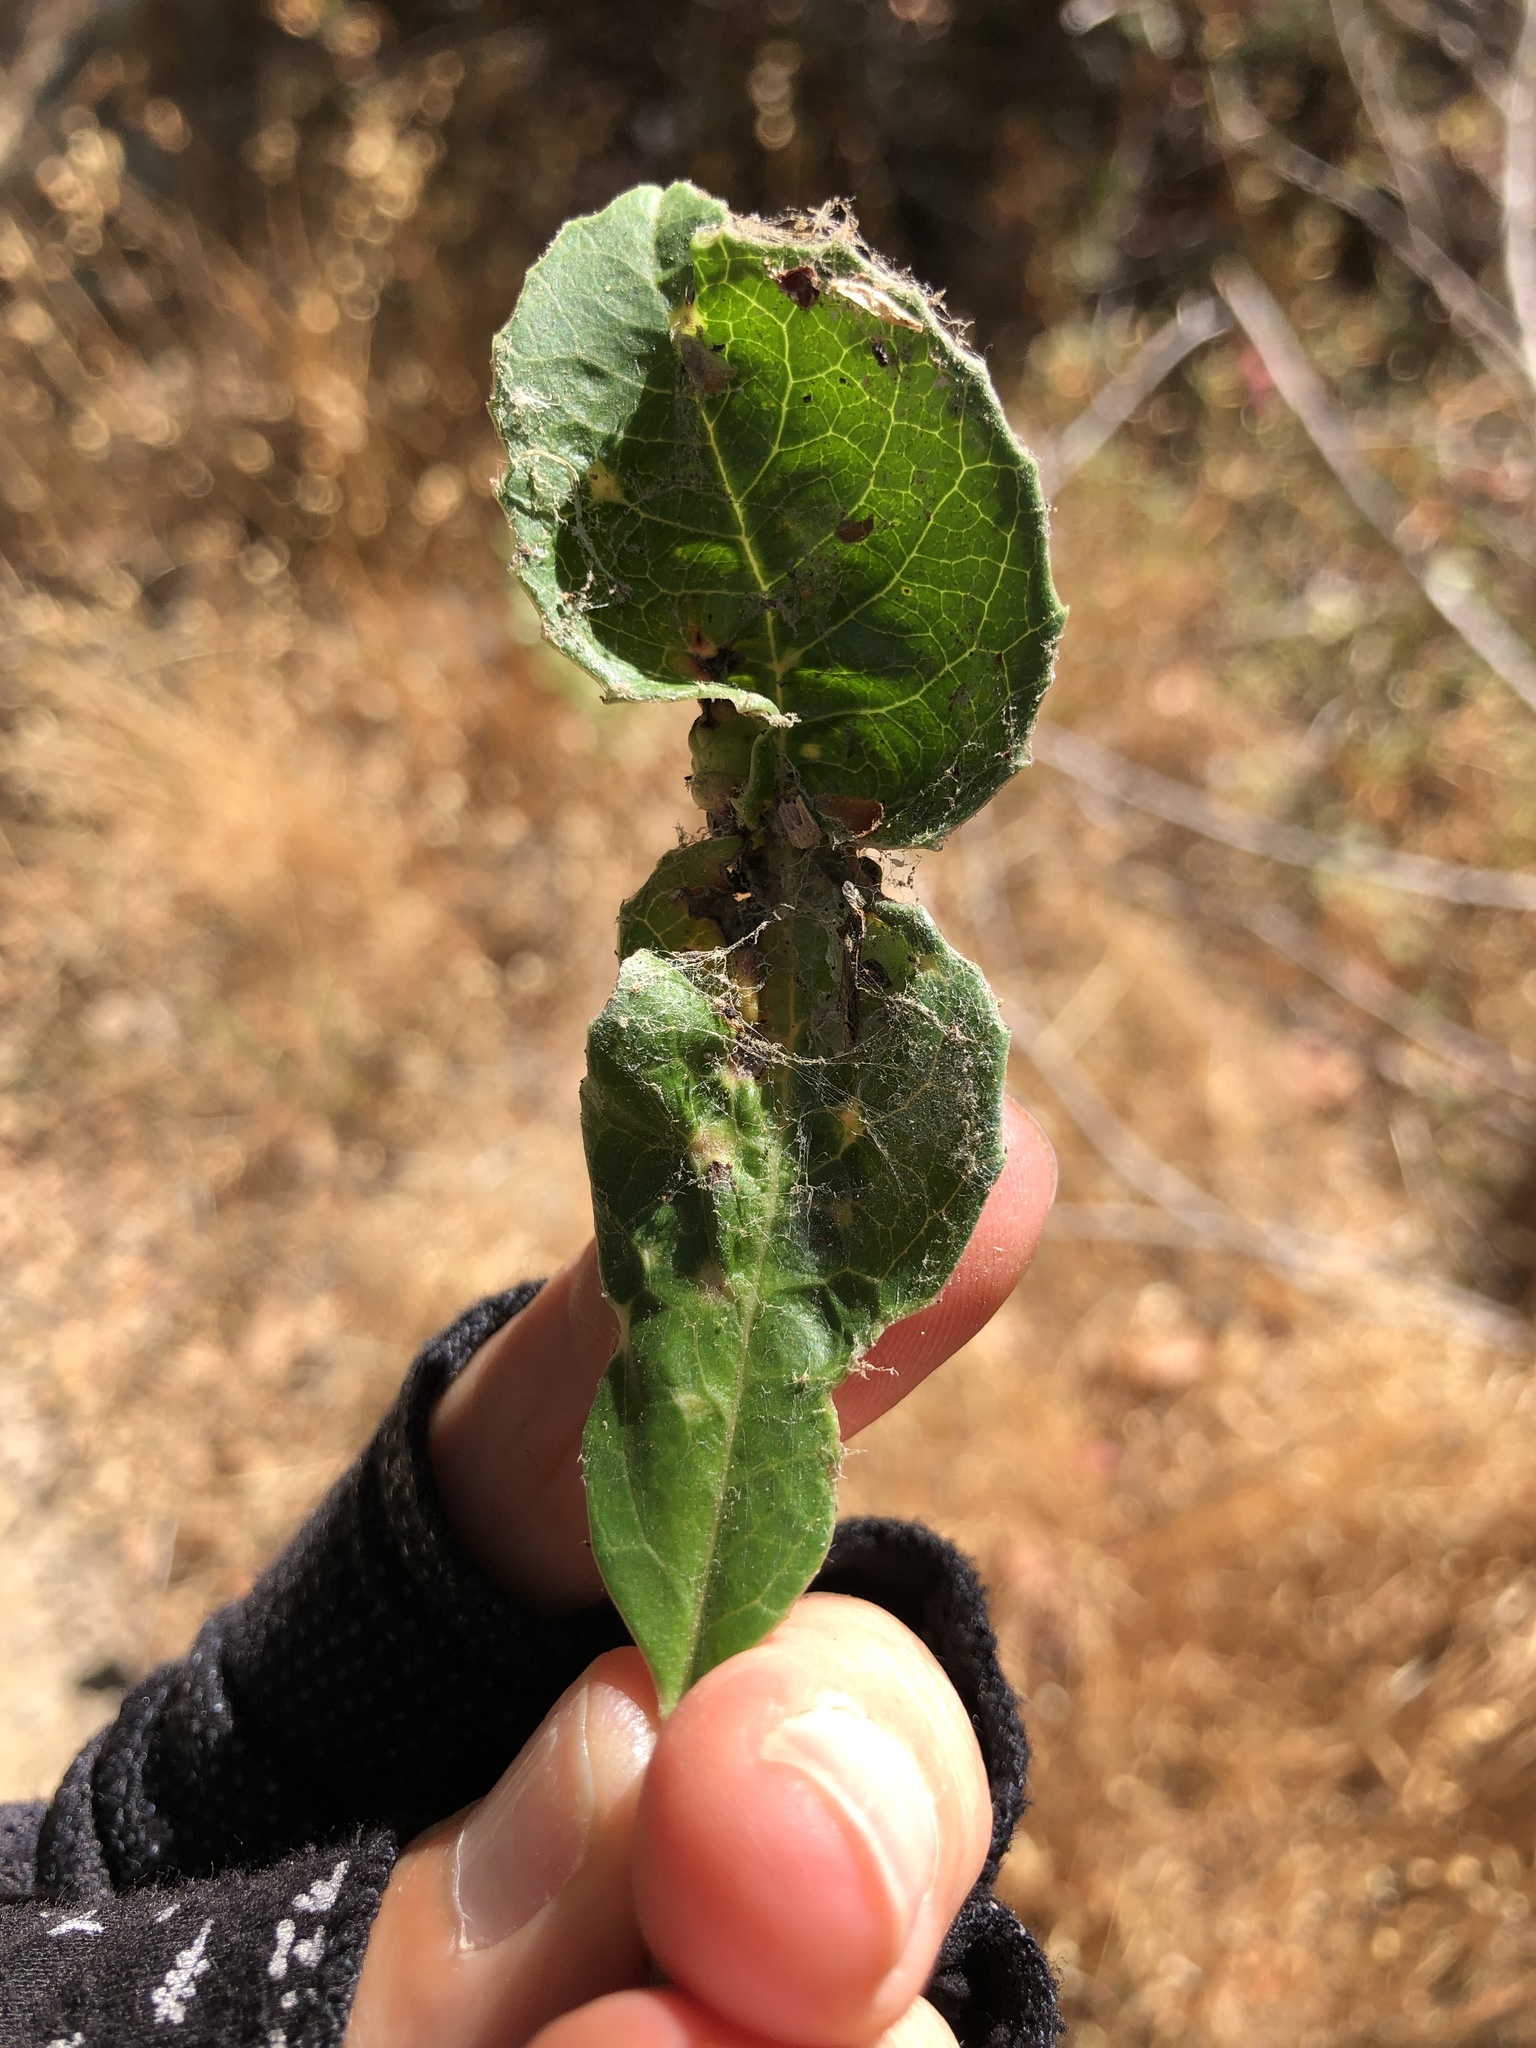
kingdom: Animalia
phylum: Arthropoda
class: Insecta
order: Thysanoptera
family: Phlaeothripidae
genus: Liothrips
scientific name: Liothrips ilex
